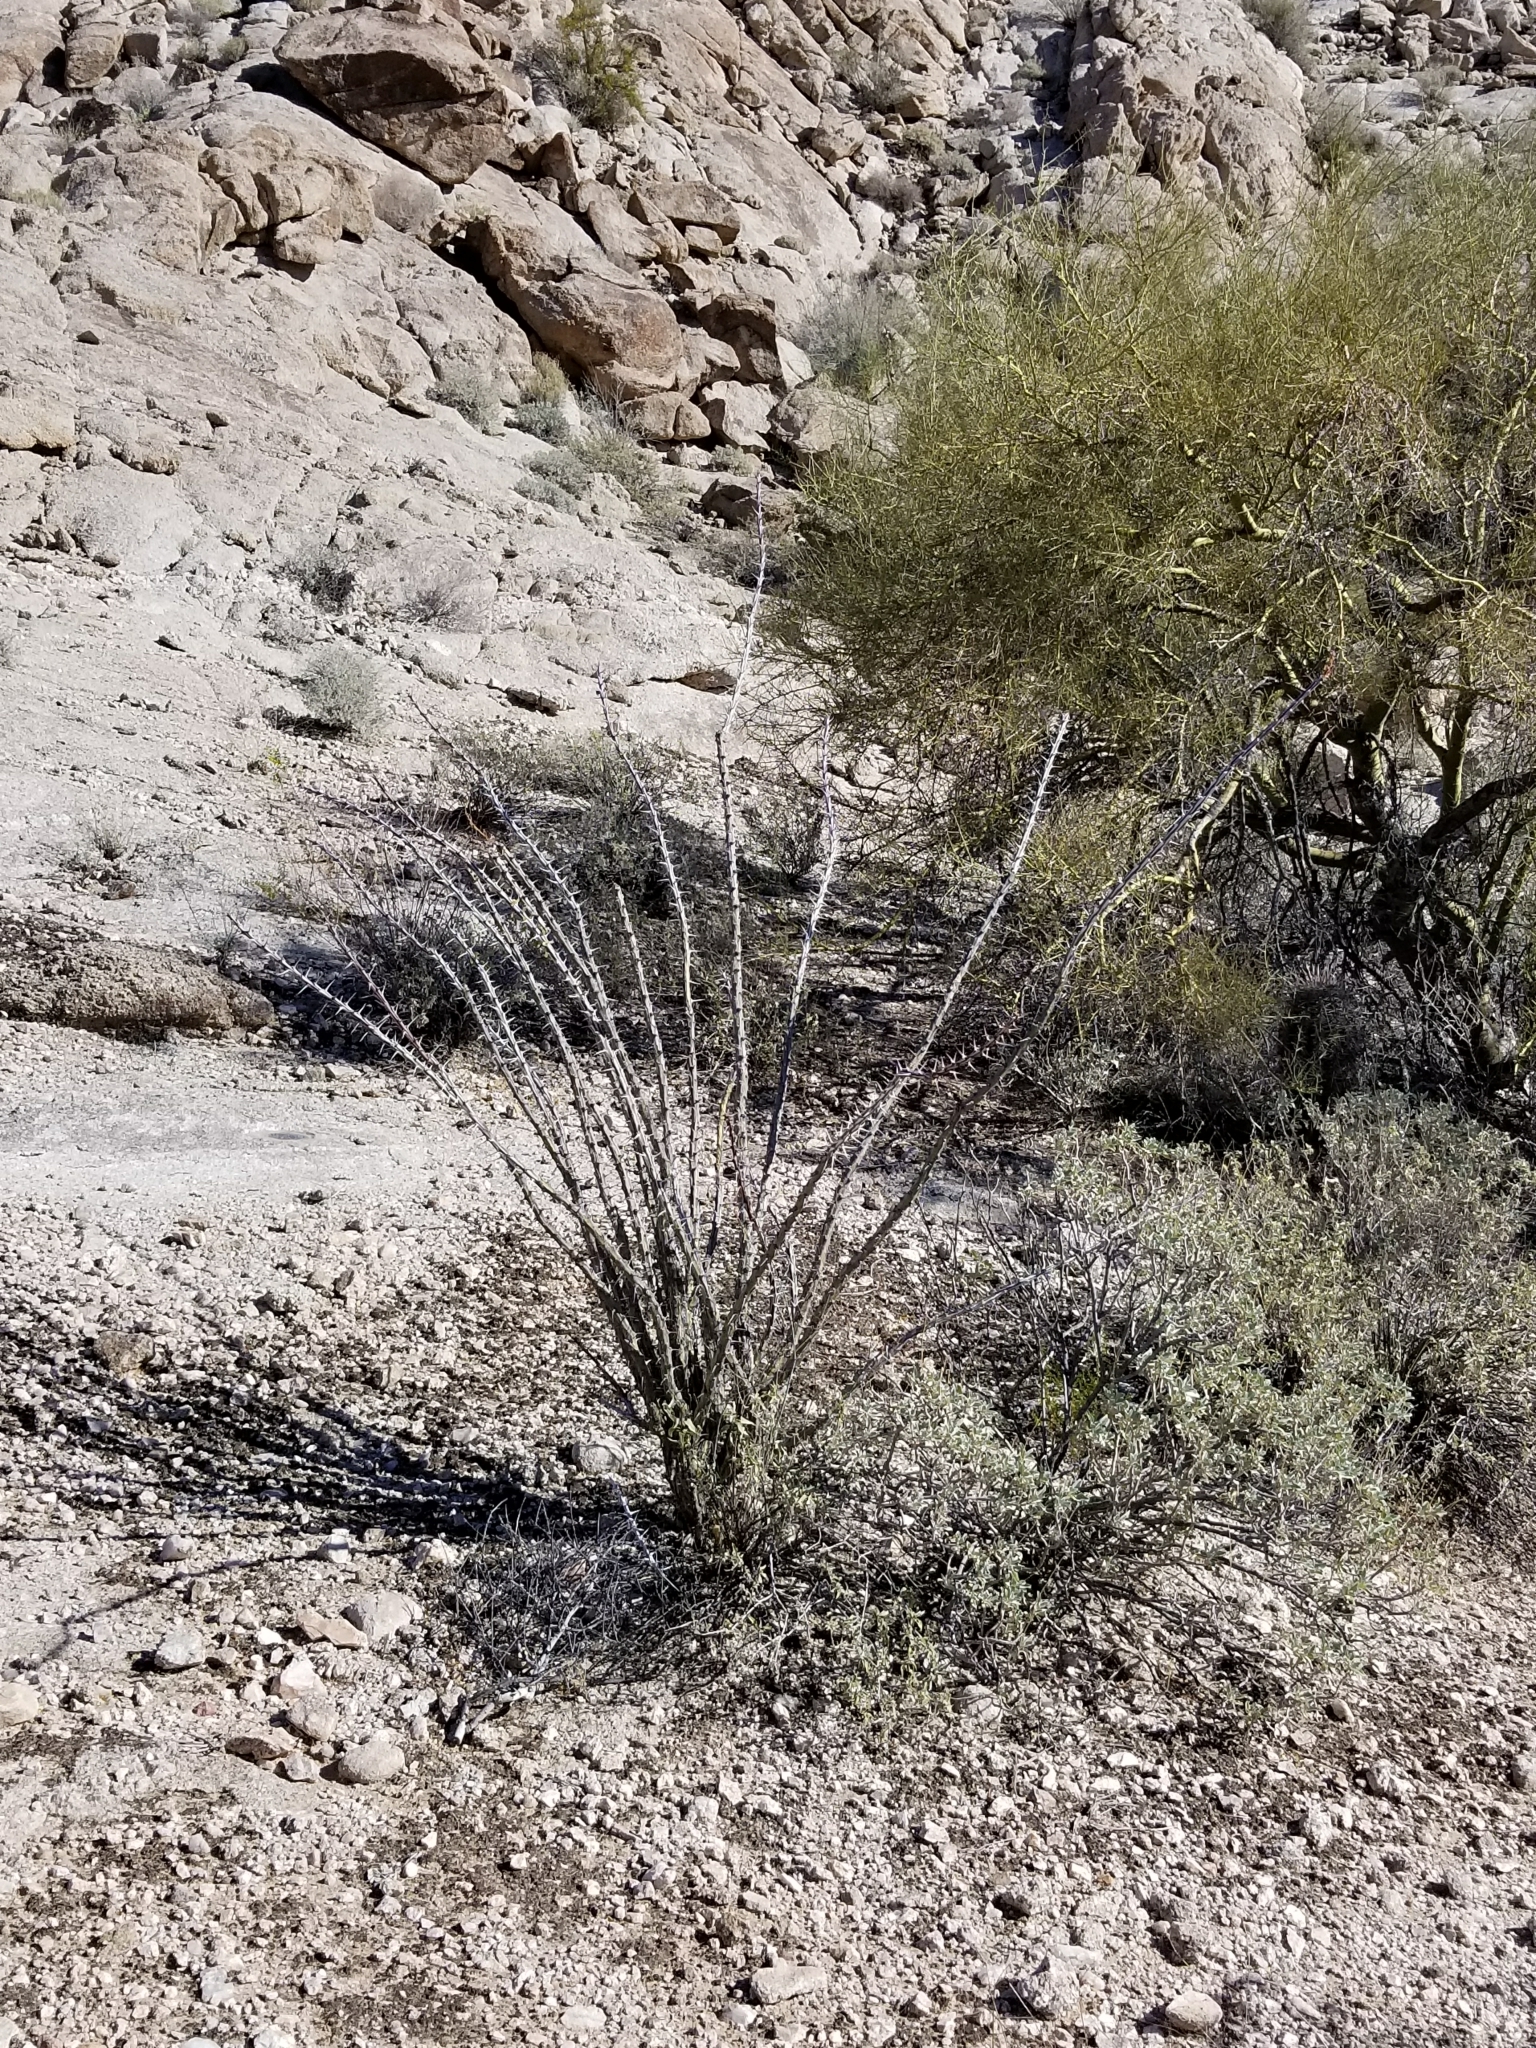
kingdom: Plantae
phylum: Tracheophyta
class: Magnoliopsida
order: Ericales
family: Fouquieriaceae
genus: Fouquieria
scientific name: Fouquieria splendens
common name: Vine-cactus
